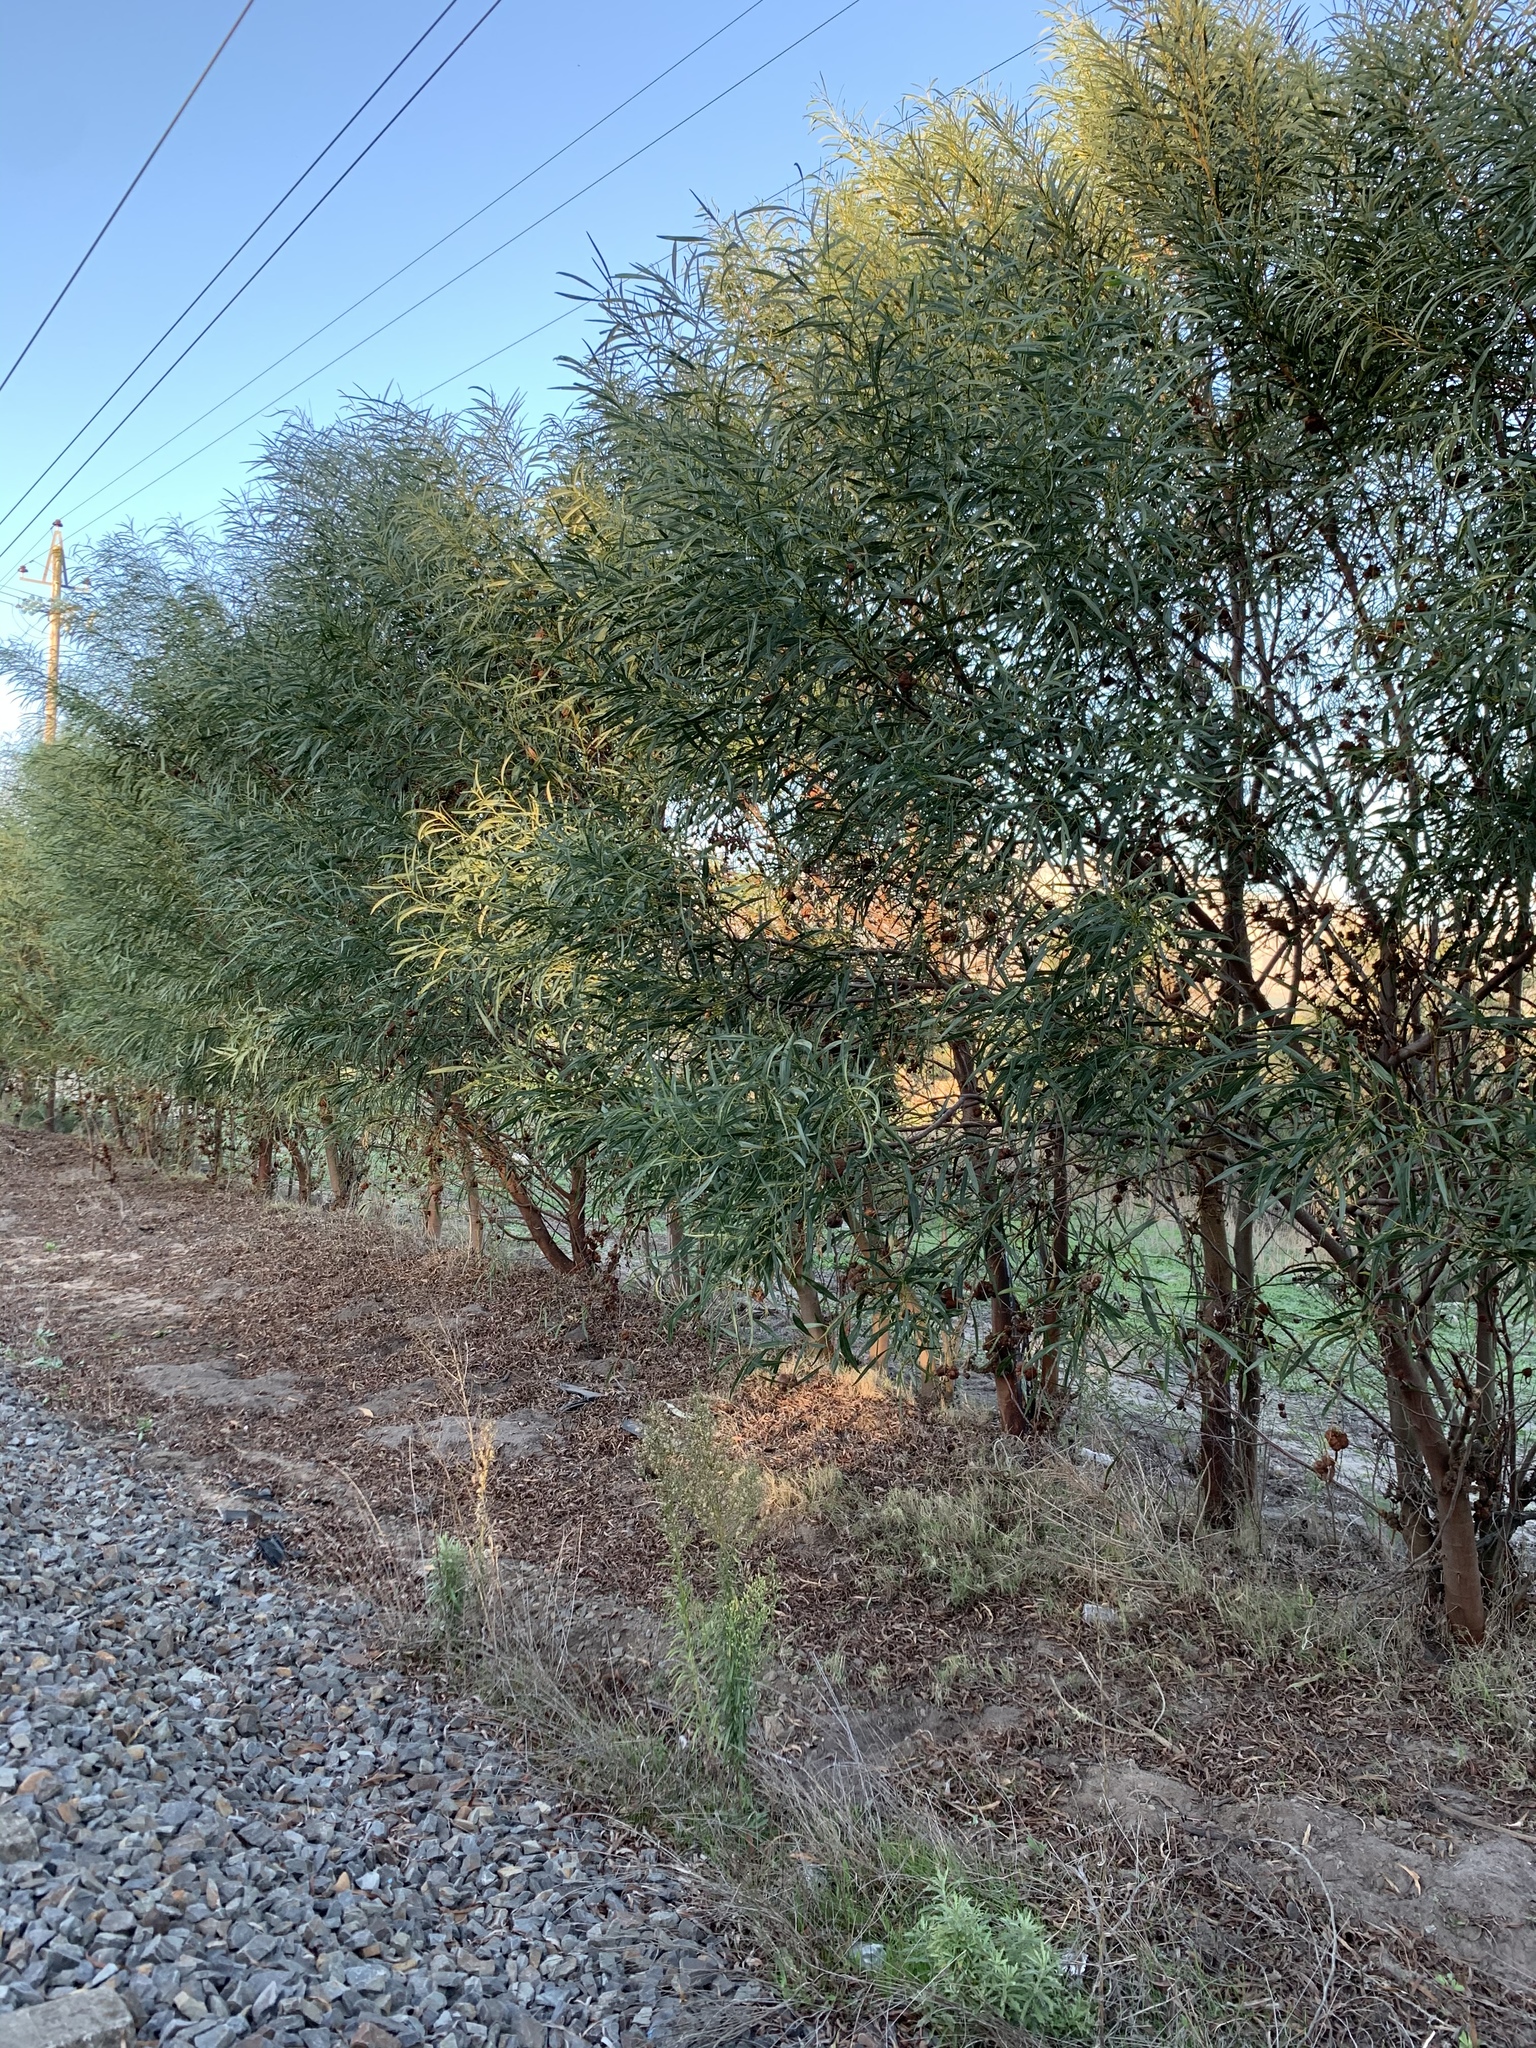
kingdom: Plantae
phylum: Tracheophyta
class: Magnoliopsida
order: Fabales
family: Fabaceae
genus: Acacia
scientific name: Acacia saligna
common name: Orange wattle
